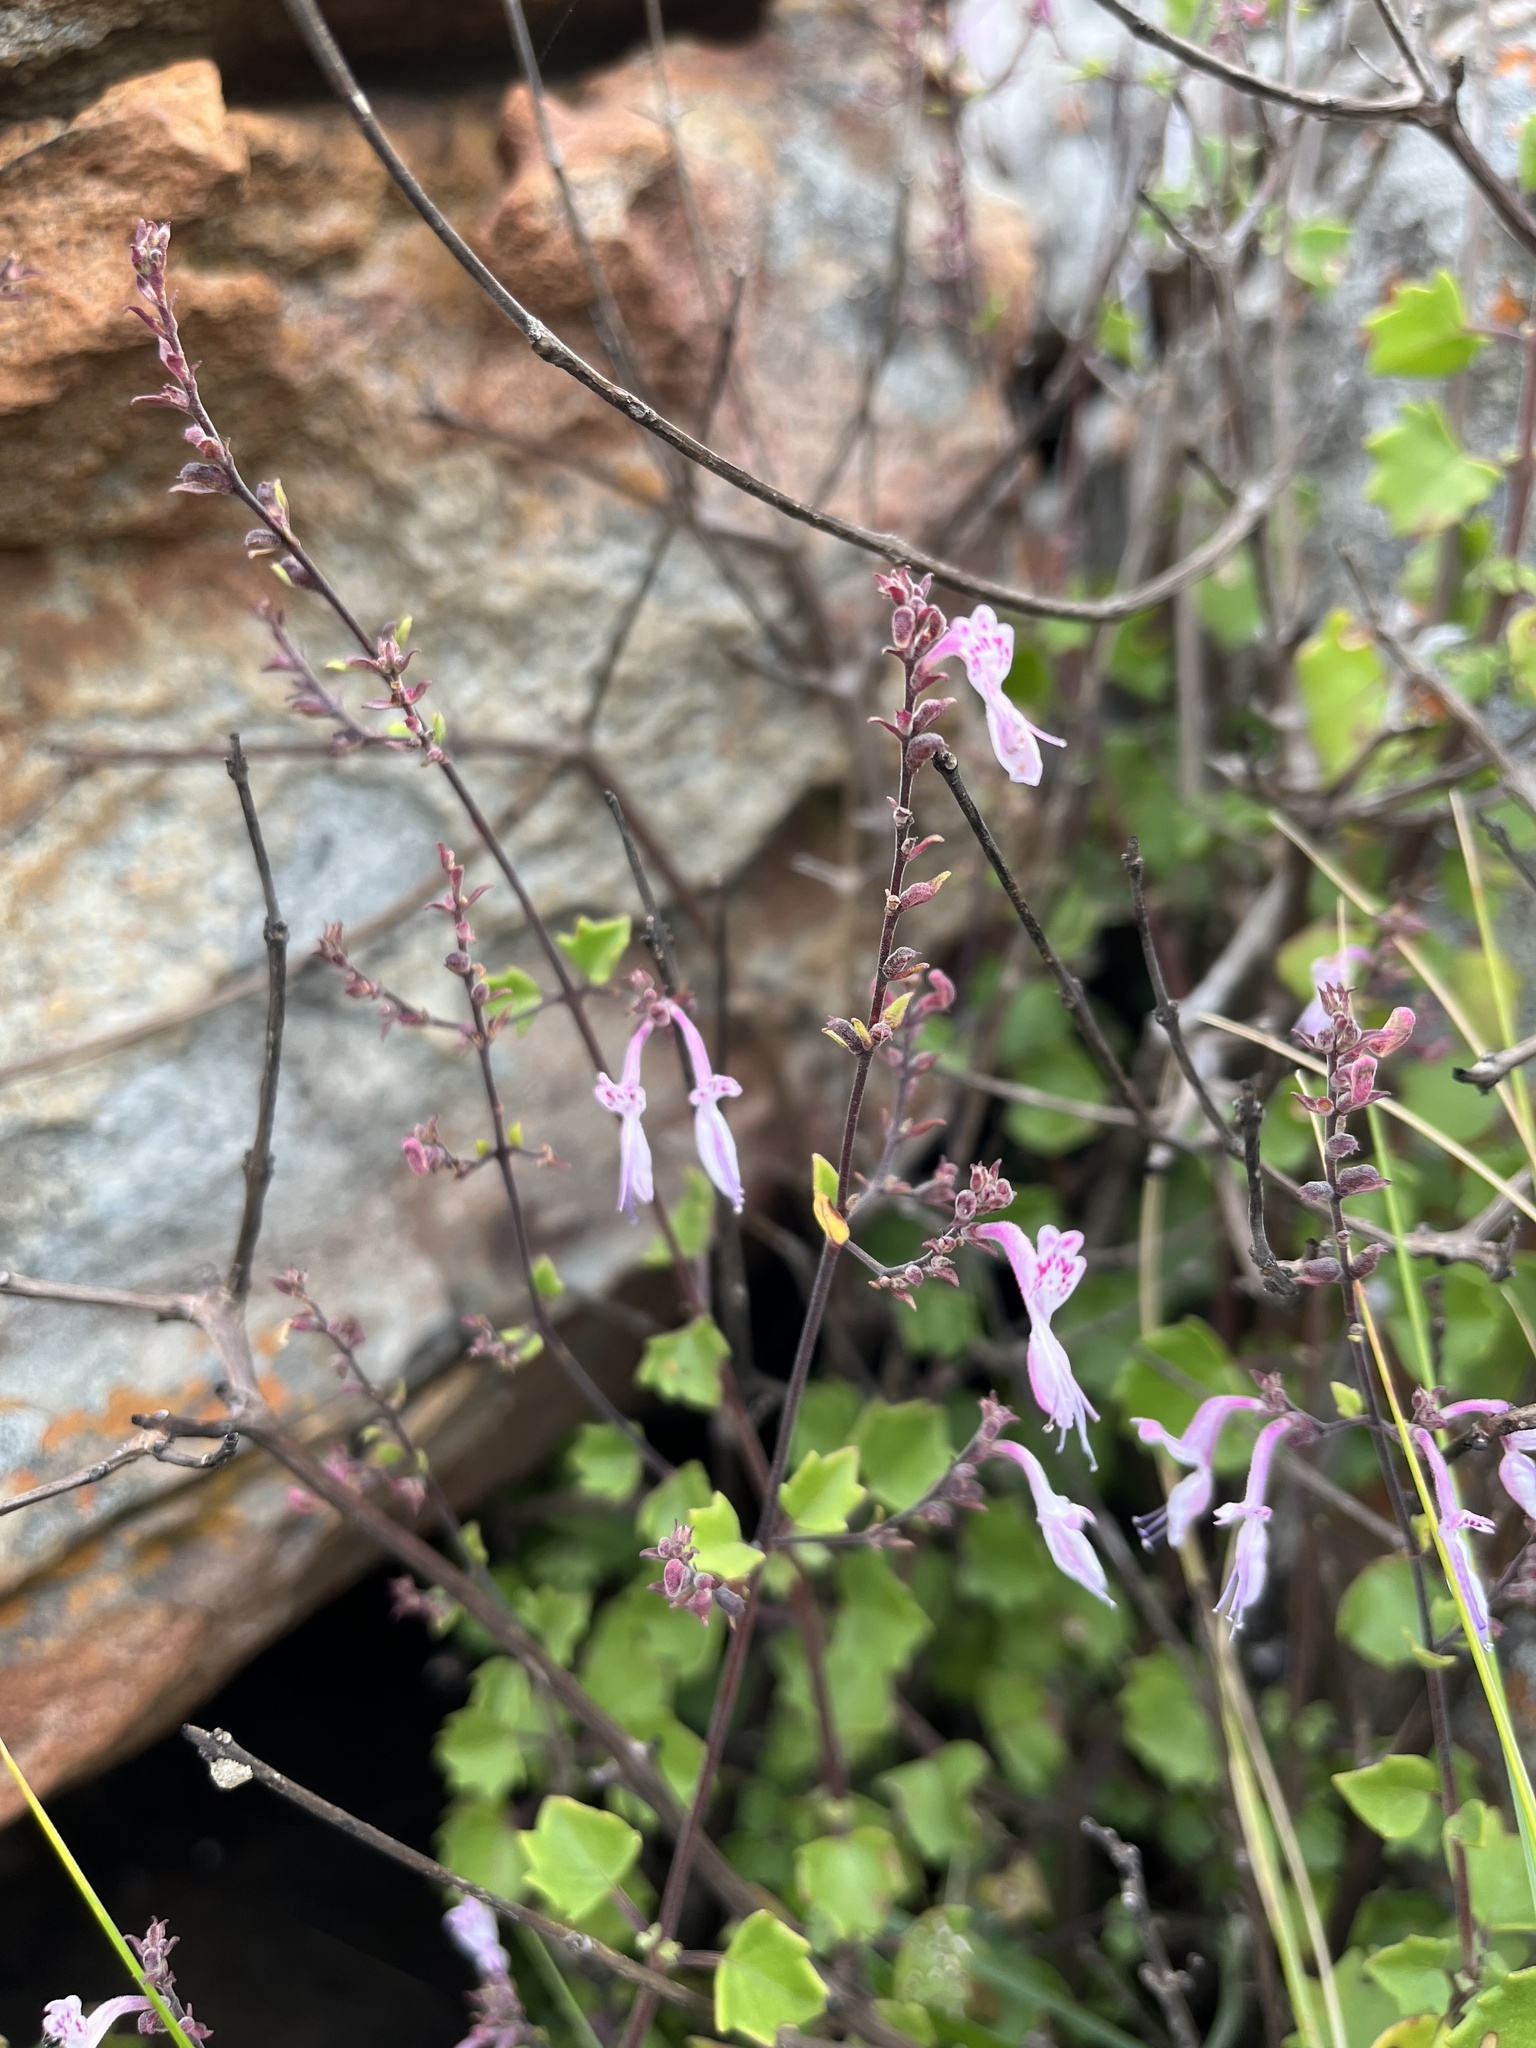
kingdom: Plantae
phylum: Tracheophyta
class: Magnoliopsida
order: Lamiales
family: Lamiaceae
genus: Aeollanthus
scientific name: Aeollanthus parvifolius
